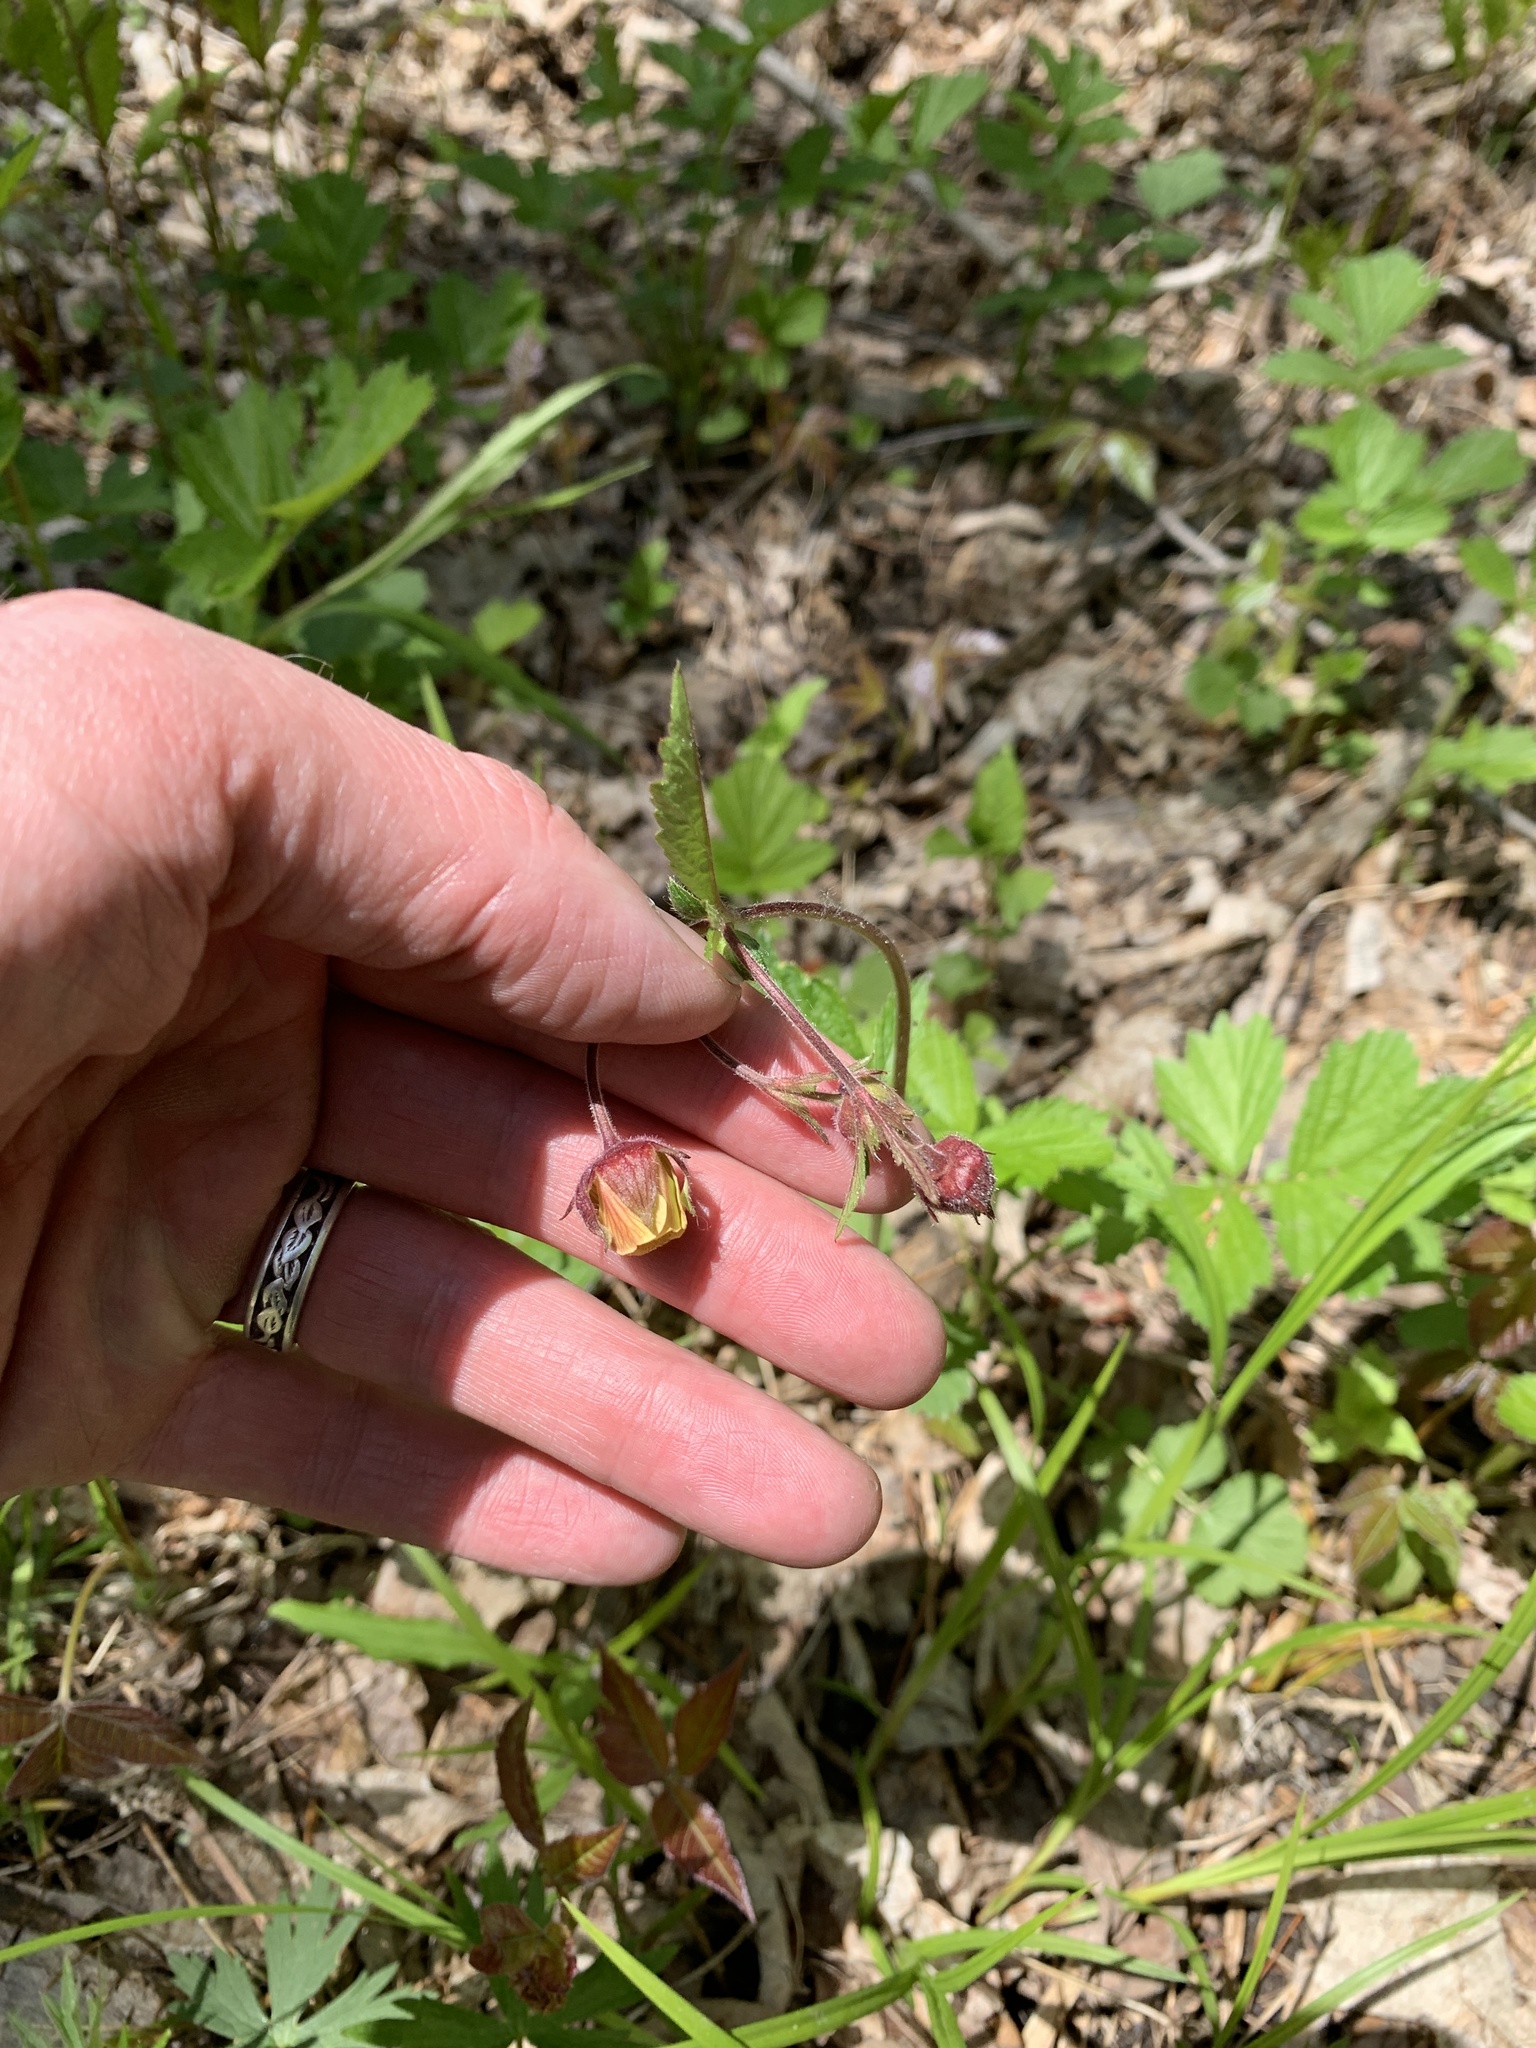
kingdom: Plantae
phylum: Tracheophyta
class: Magnoliopsida
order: Rosales
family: Rosaceae
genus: Geum
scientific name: Geum rivale
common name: Water avens
